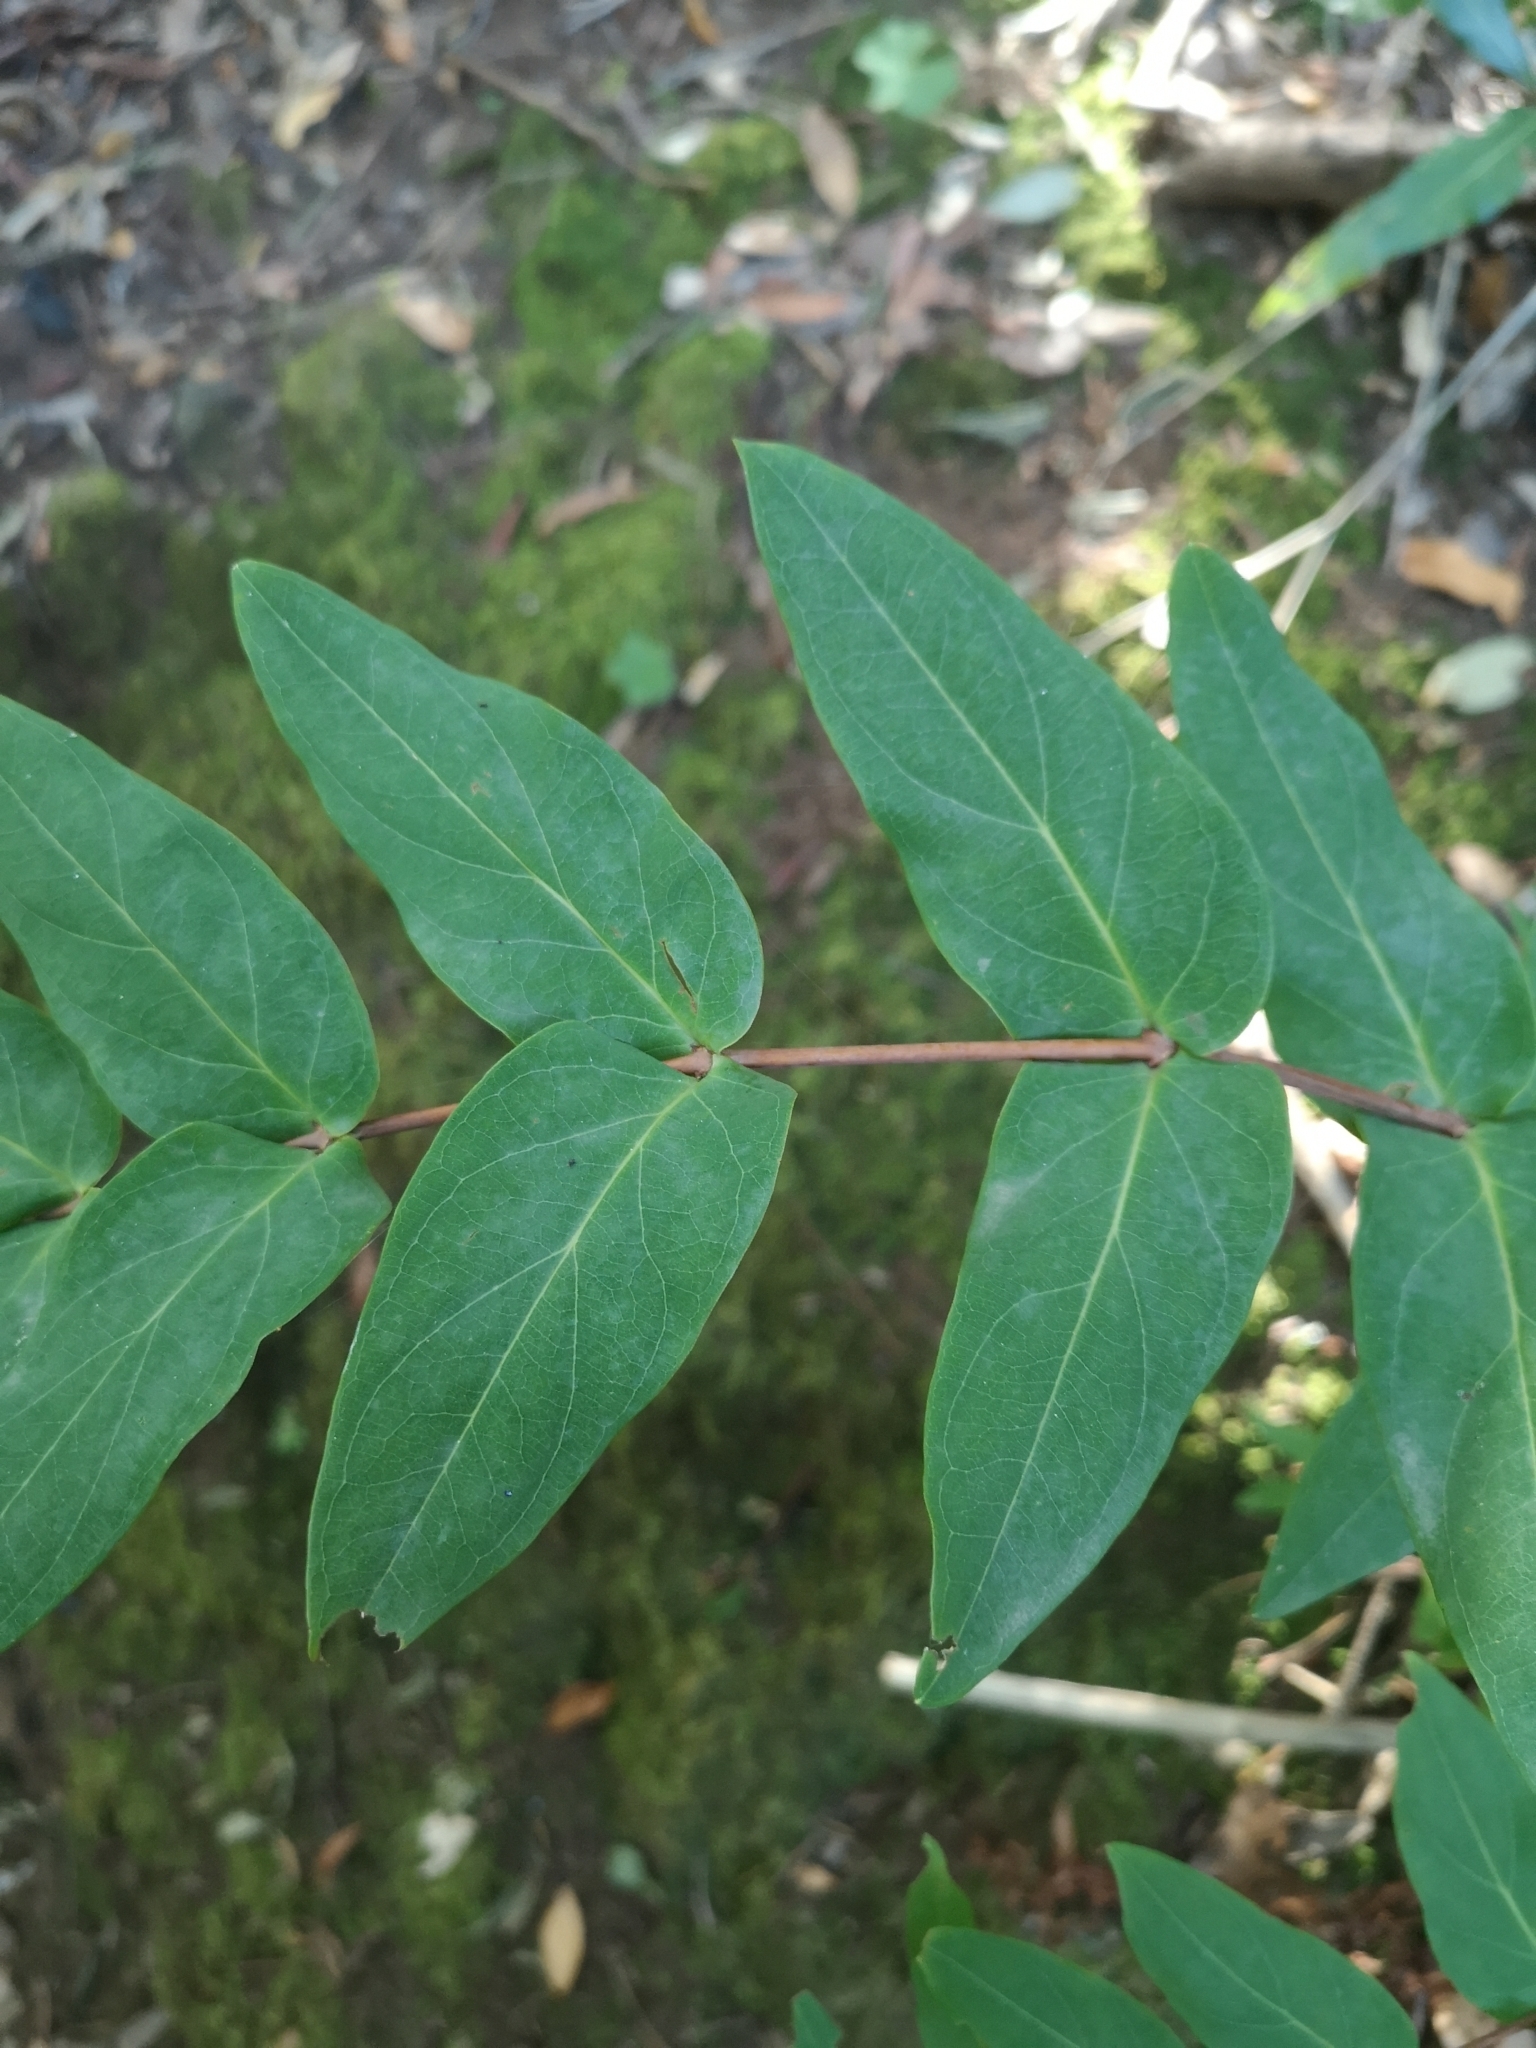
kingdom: Plantae
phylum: Tracheophyta
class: Magnoliopsida
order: Malpighiales
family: Hypericaceae
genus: Hypericum
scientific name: Hypericum grandifolium
